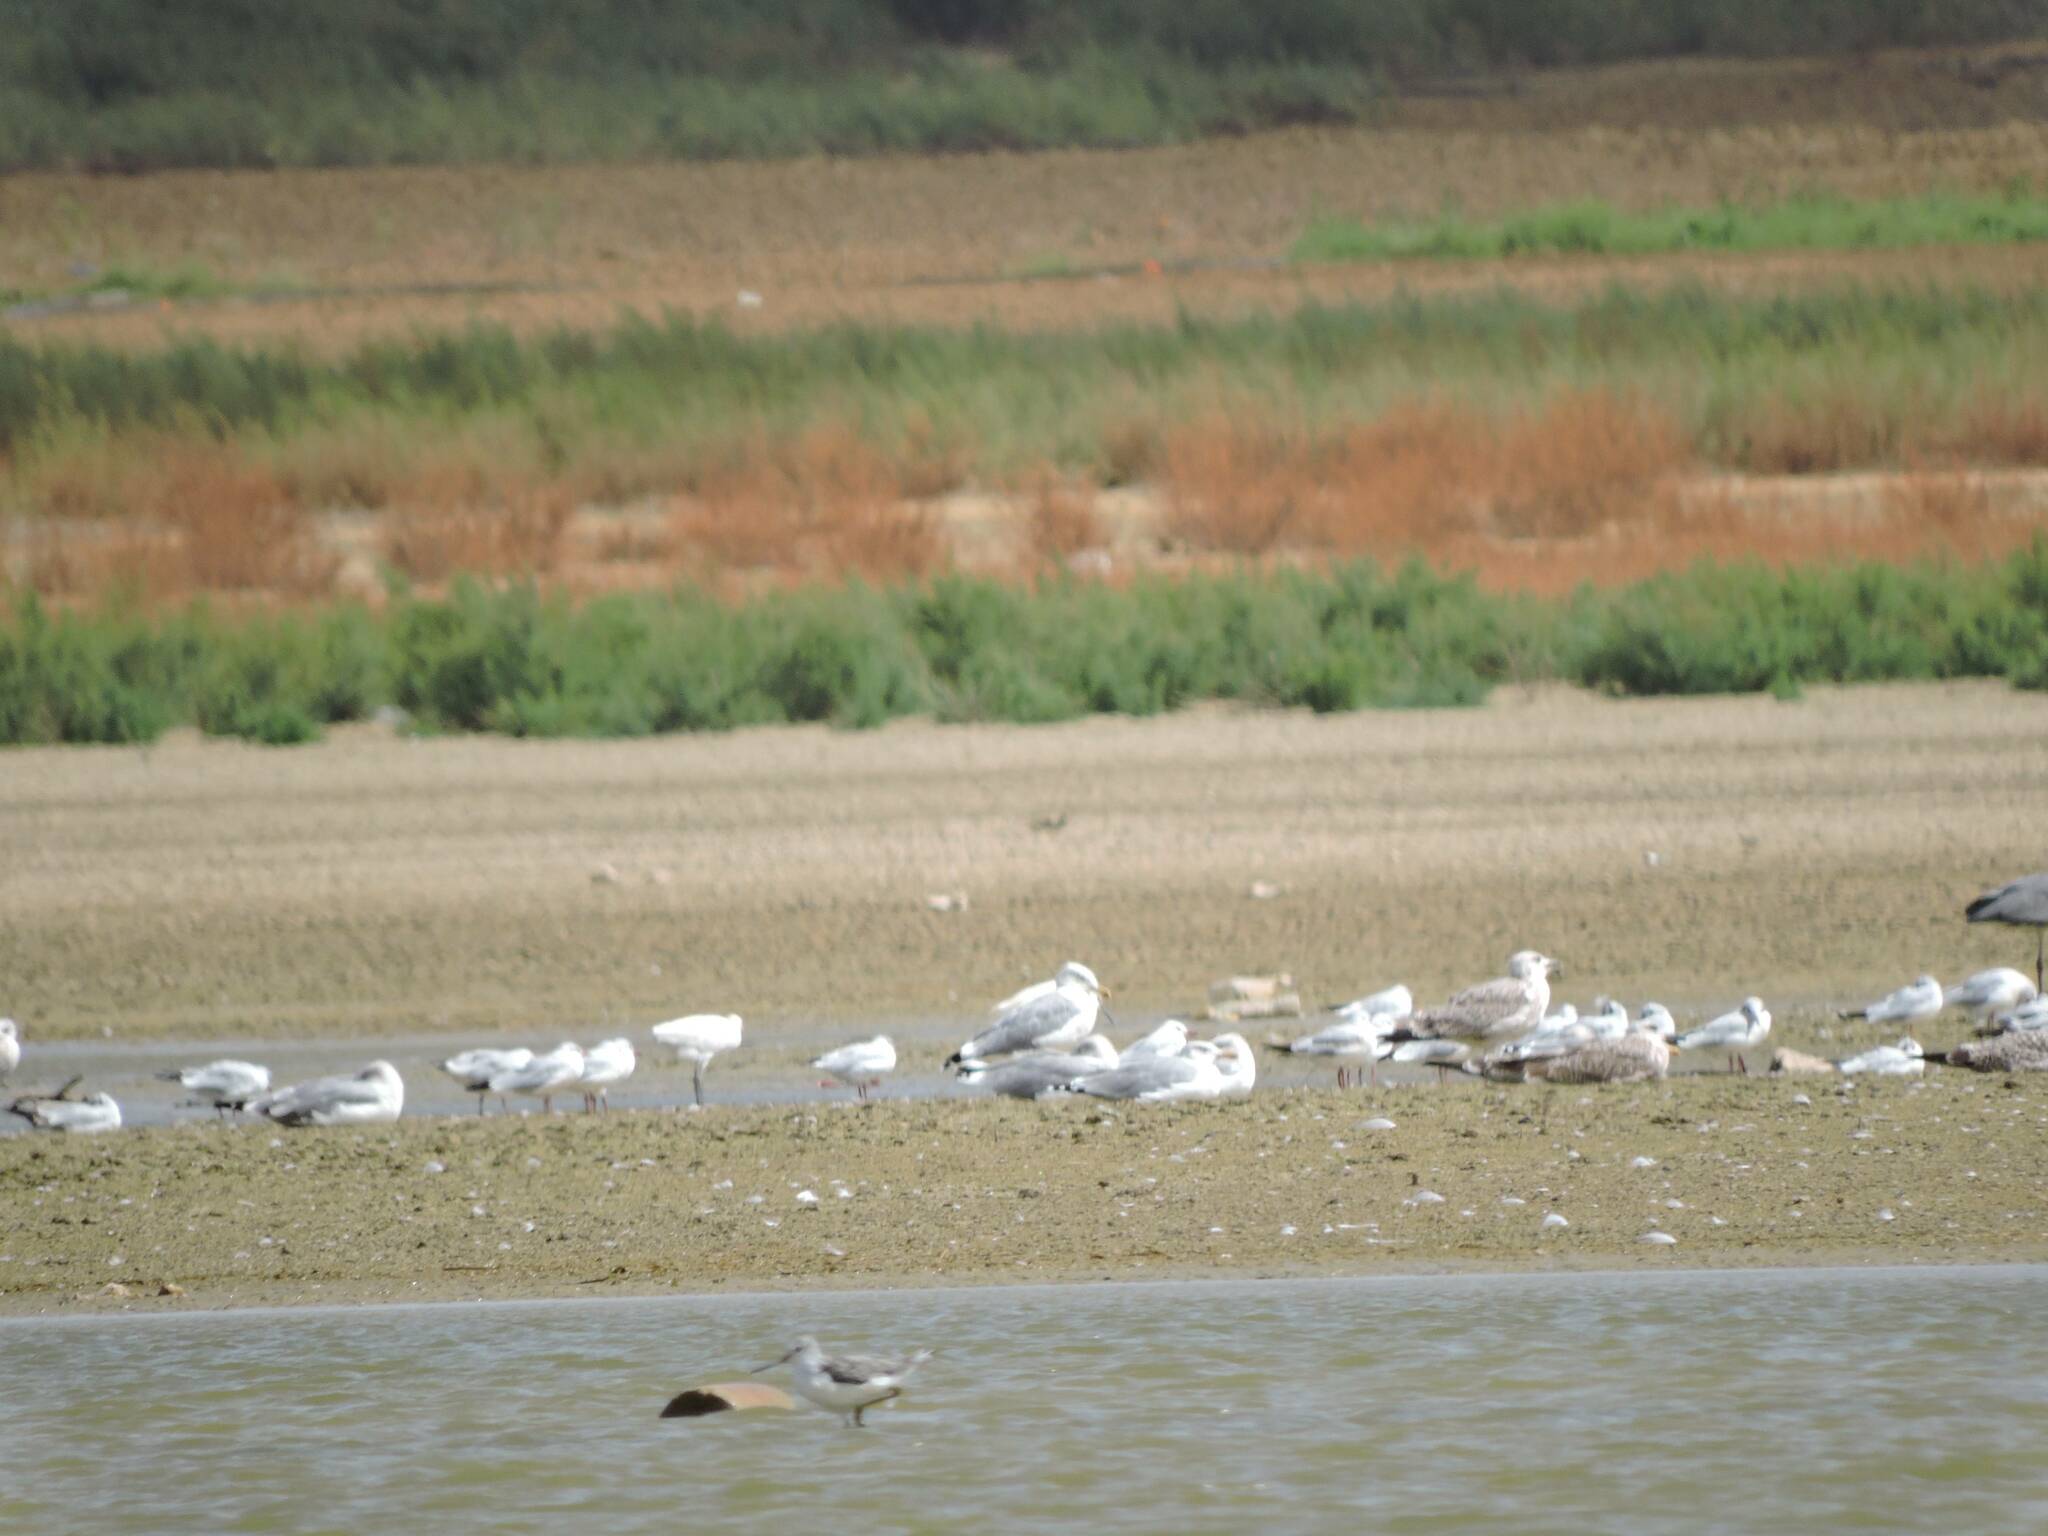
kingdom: Animalia
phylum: Chordata
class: Aves
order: Charadriiformes
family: Laridae
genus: Larus
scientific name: Larus michahellis
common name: Yellow-legged gull
